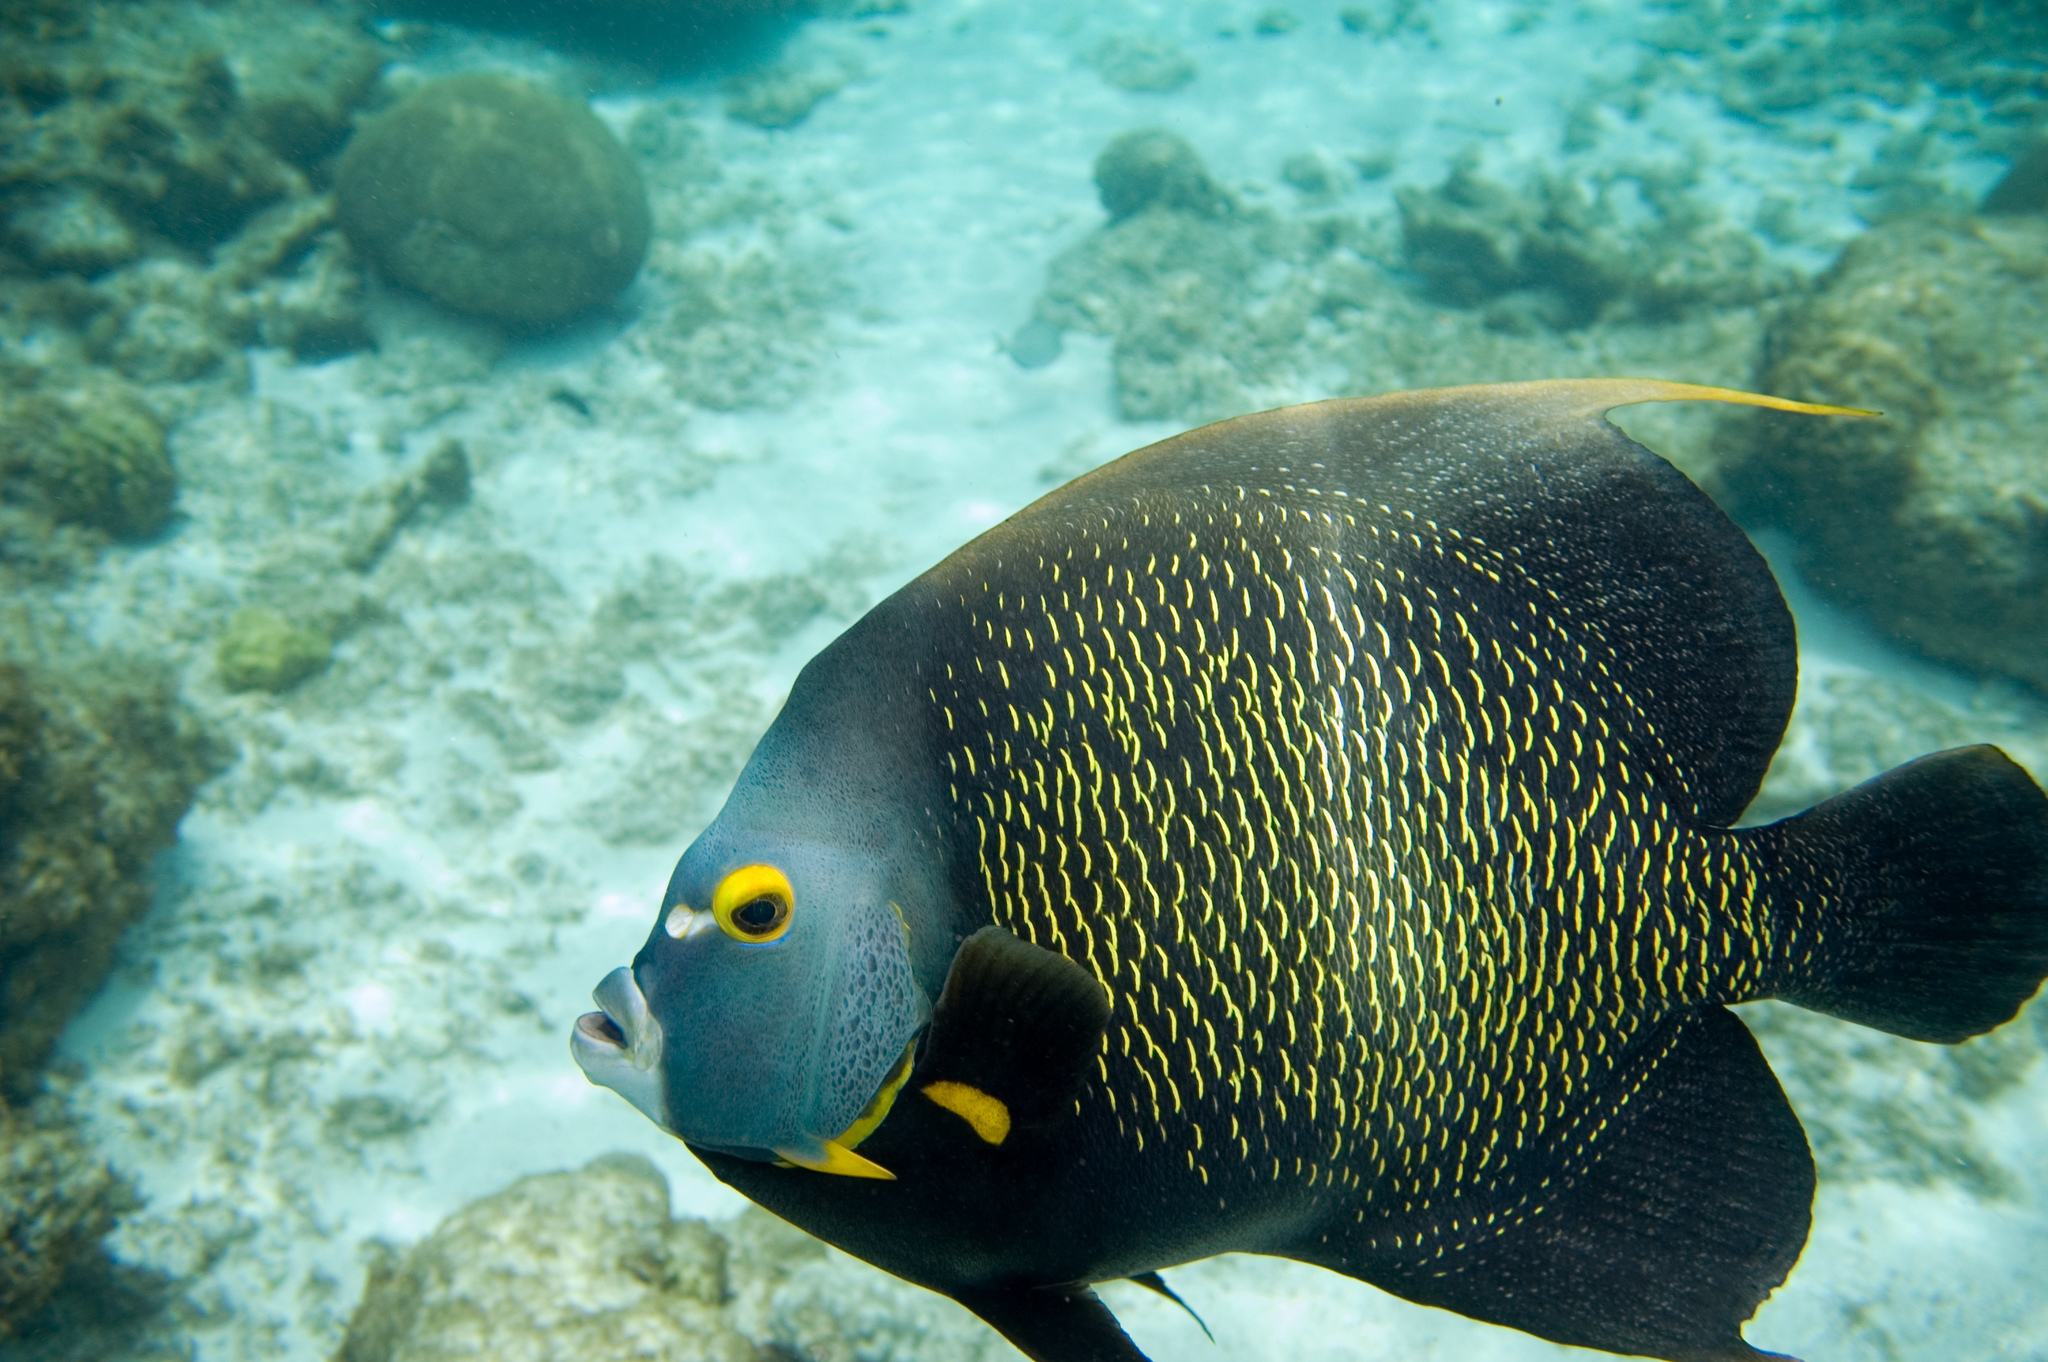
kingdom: Animalia
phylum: Chordata
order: Perciformes
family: Pomacanthidae
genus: Pomacanthus
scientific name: Pomacanthus paru
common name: French angelfish
